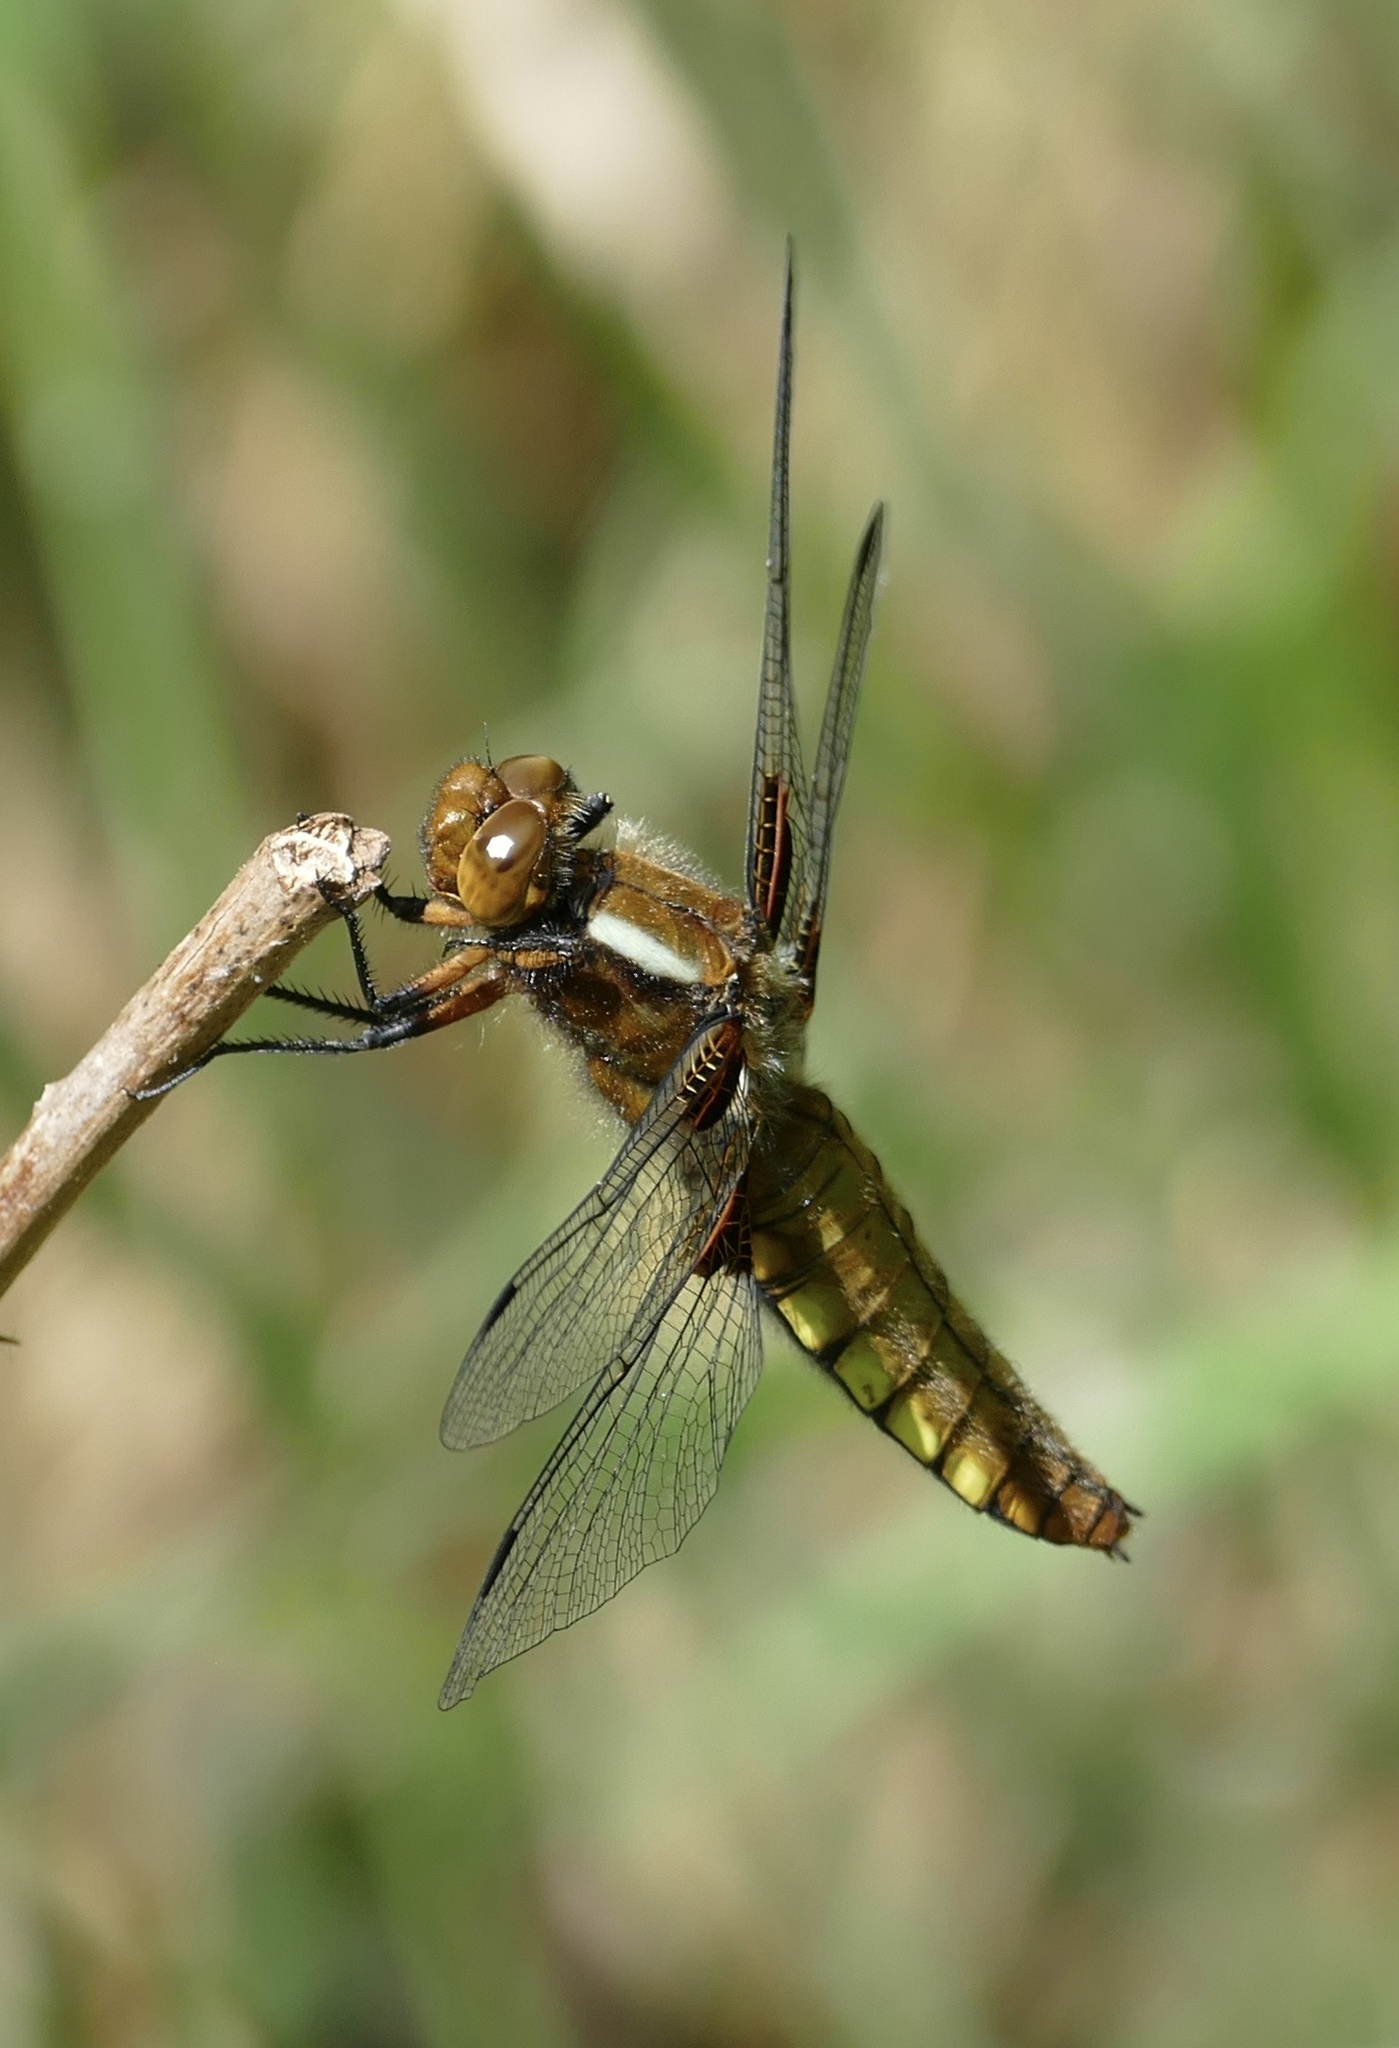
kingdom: Animalia
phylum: Arthropoda
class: Insecta
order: Odonata
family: Libellulidae
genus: Libellula
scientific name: Libellula depressa
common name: Broad-bodied chaser
